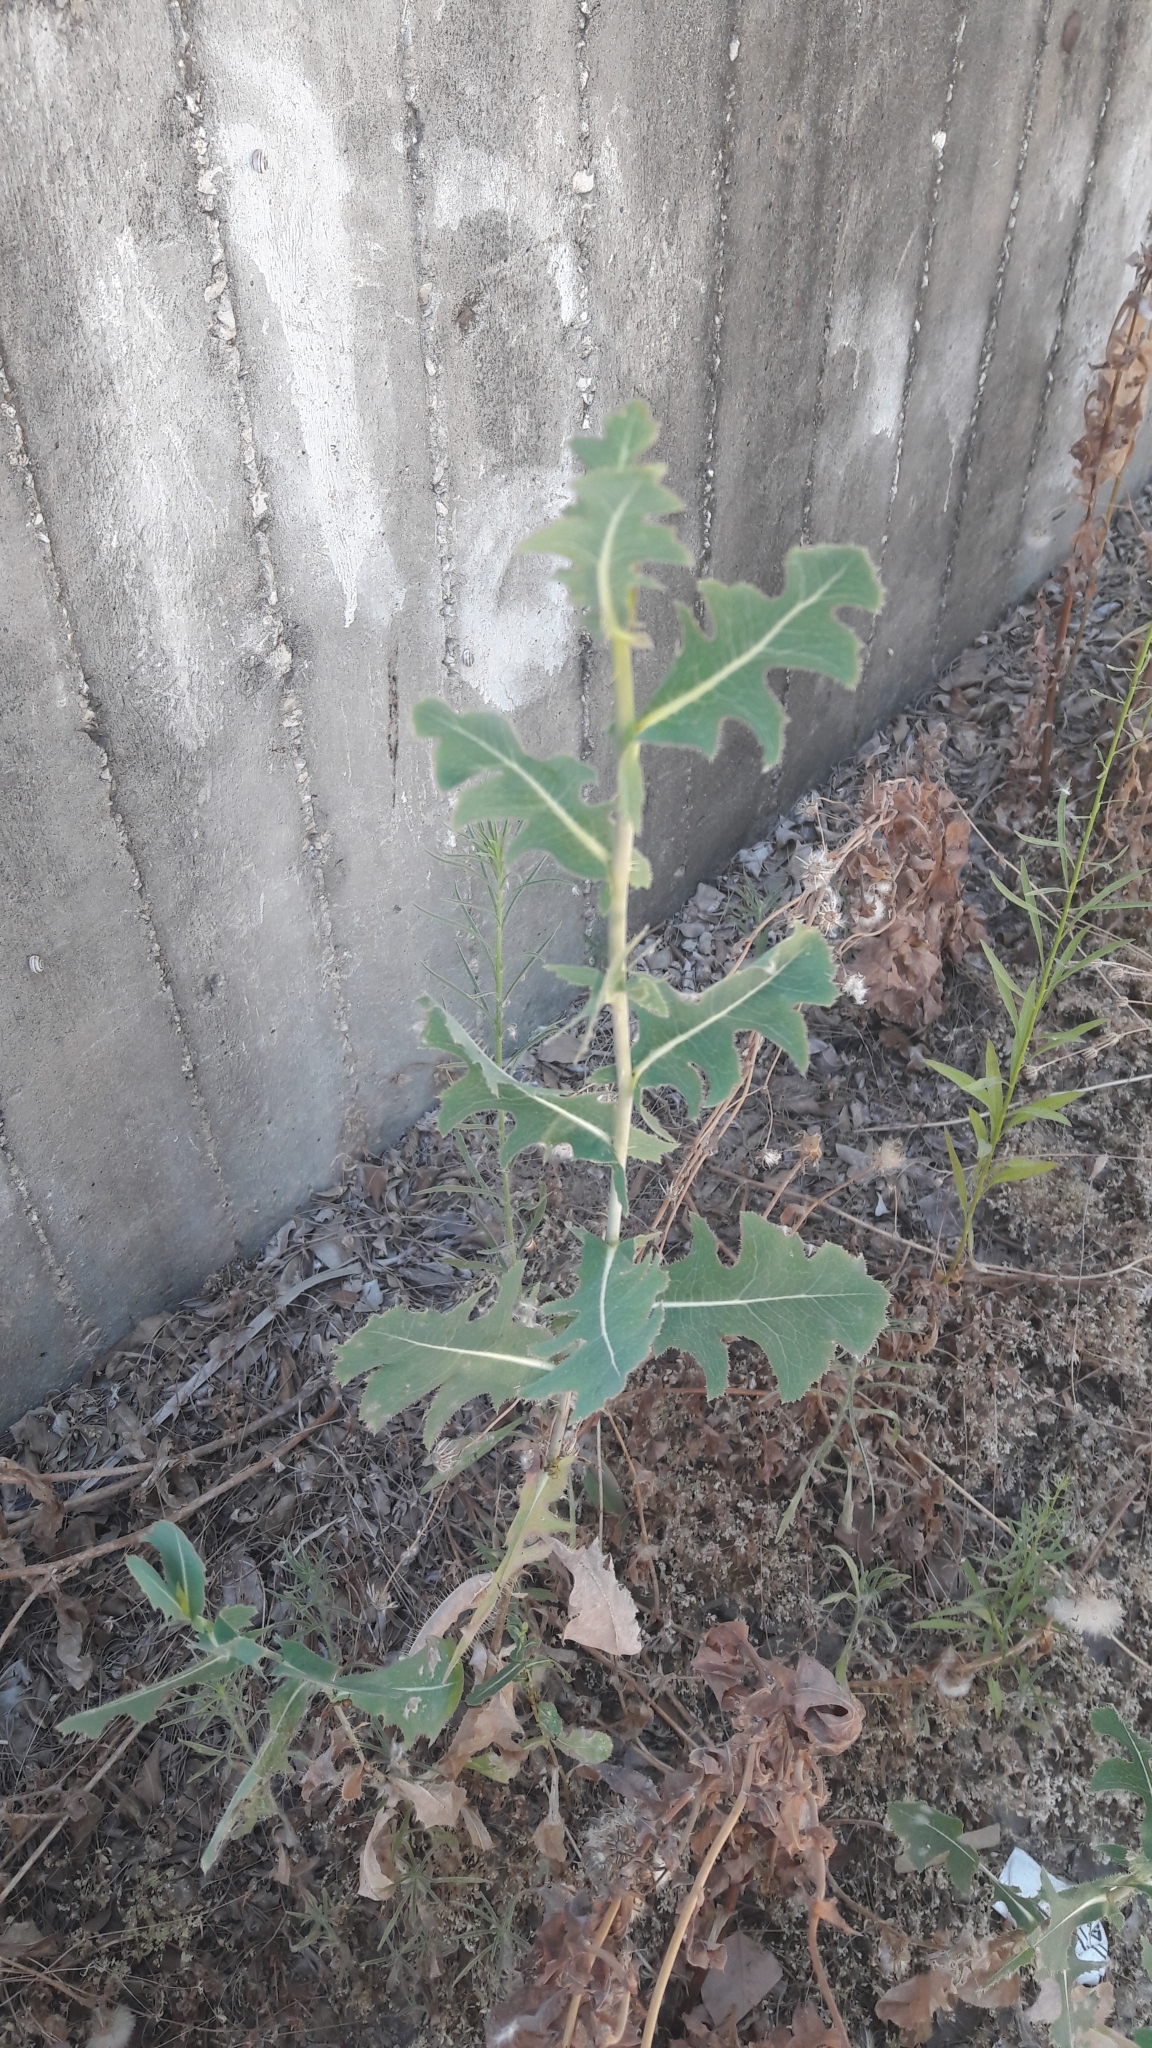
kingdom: Plantae
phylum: Tracheophyta
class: Magnoliopsida
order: Asterales
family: Asteraceae
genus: Lactuca
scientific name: Lactuca serriola
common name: Prickly lettuce
